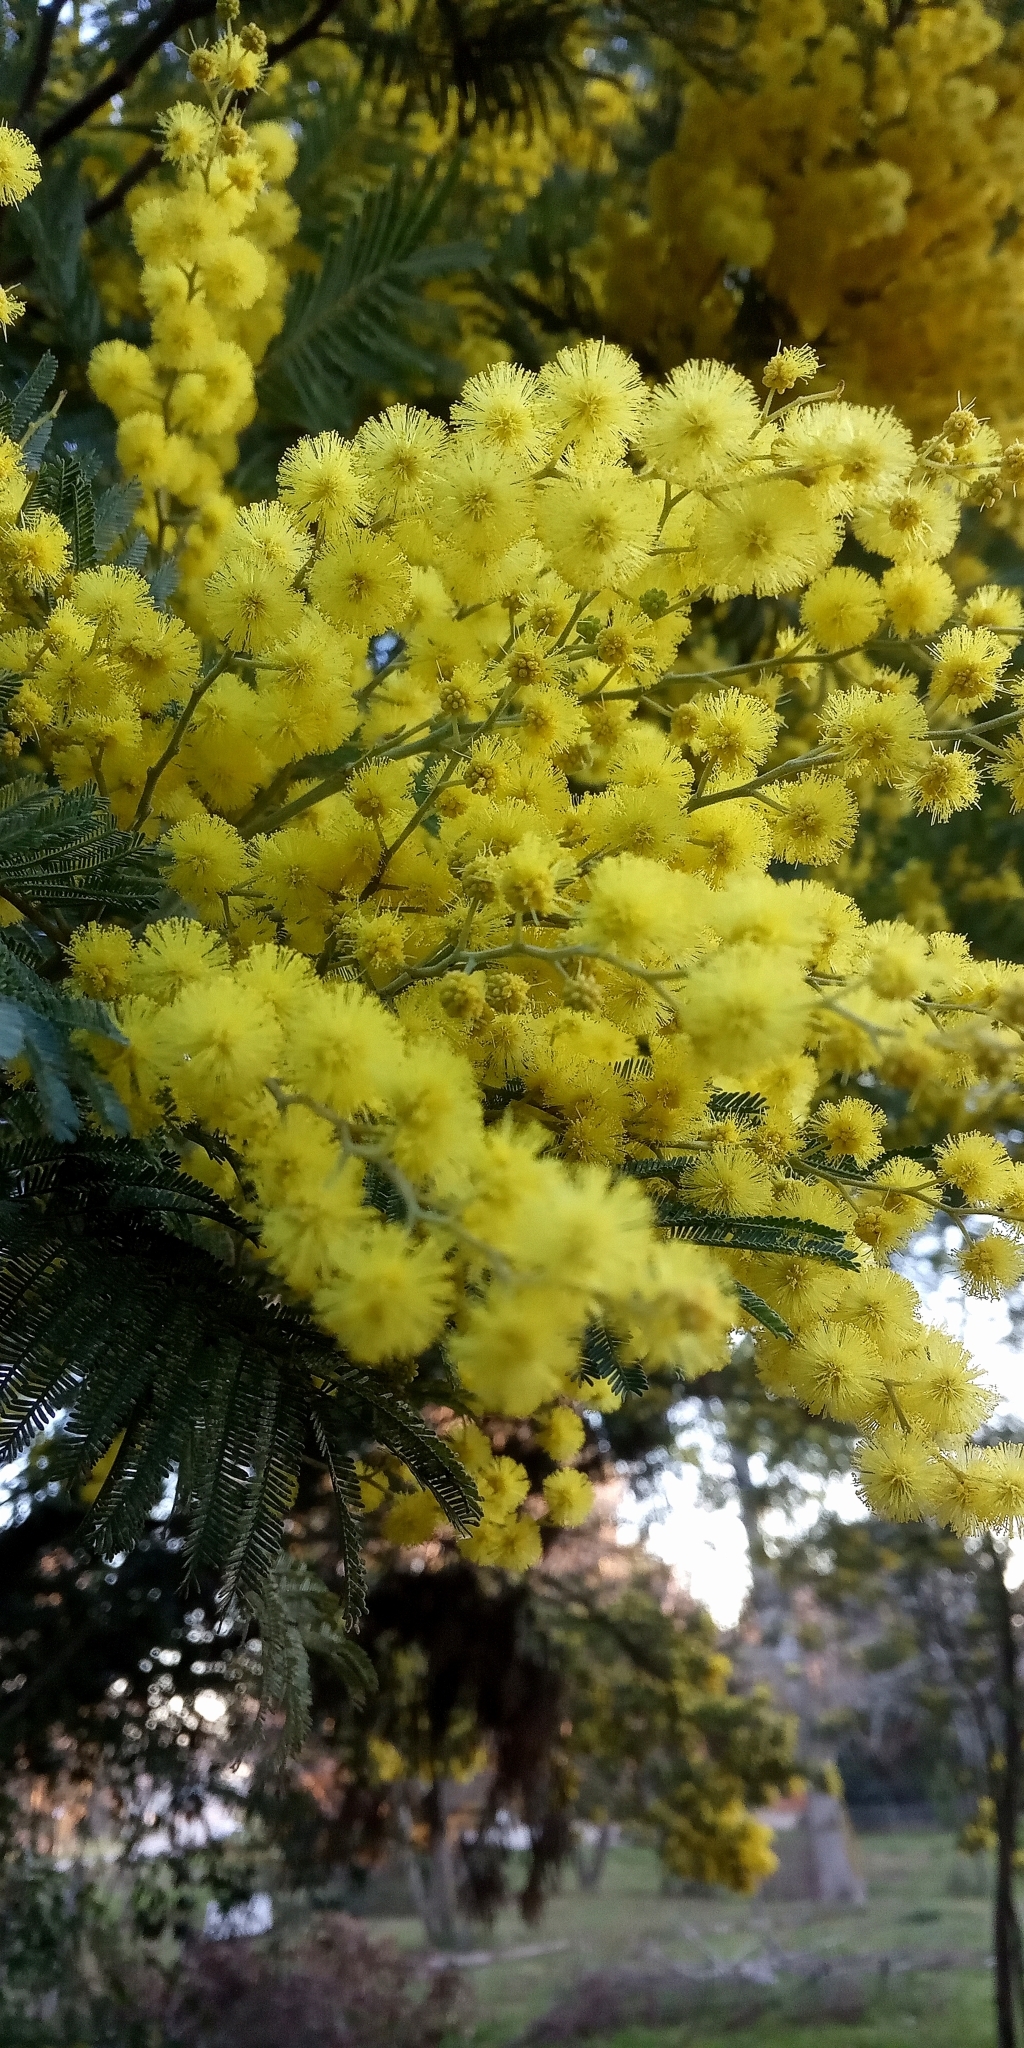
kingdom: Plantae
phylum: Tracheophyta
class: Magnoliopsida
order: Fabales
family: Fabaceae
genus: Acacia
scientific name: Acacia dealbata
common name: Silver wattle
